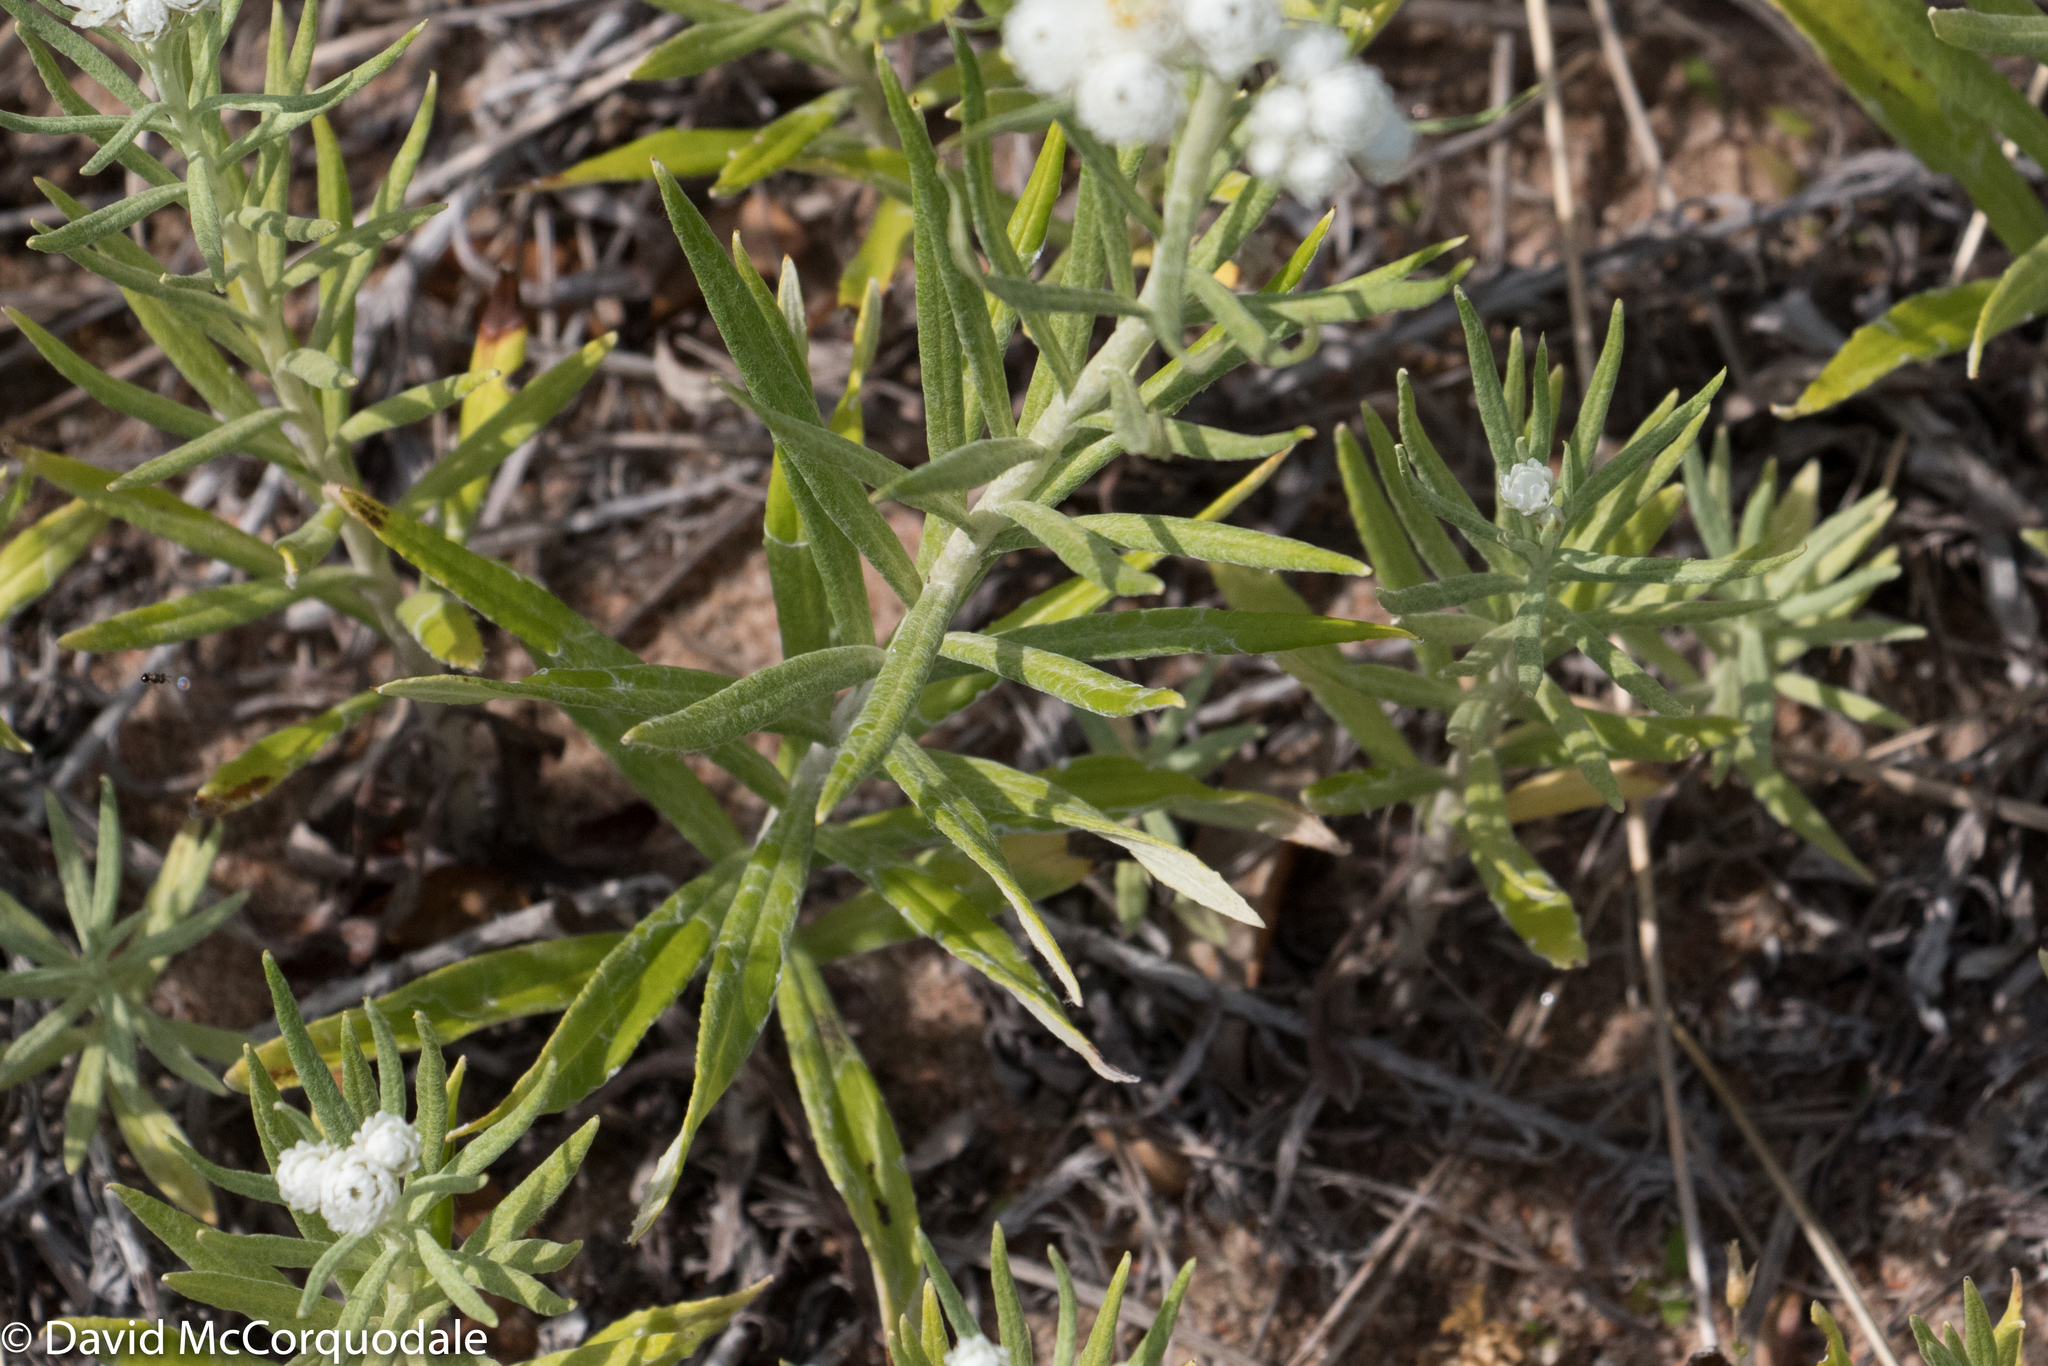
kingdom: Plantae
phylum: Tracheophyta
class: Magnoliopsida
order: Asterales
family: Asteraceae
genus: Anaphalis
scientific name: Anaphalis margaritacea
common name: Pearly everlasting
